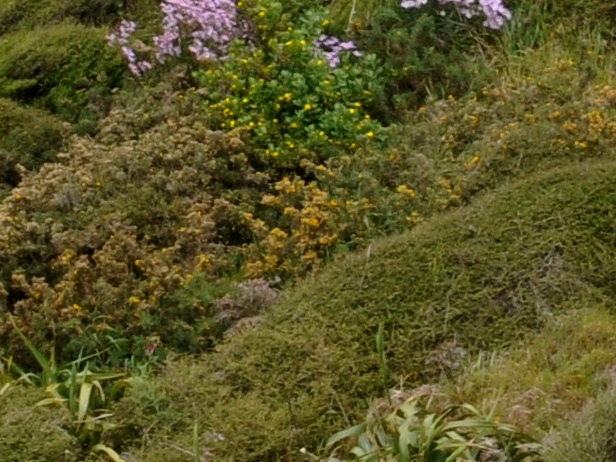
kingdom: Plantae
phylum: Tracheophyta
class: Magnoliopsida
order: Fabales
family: Fabaceae
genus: Ulex
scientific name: Ulex europaeus
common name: Common gorse
